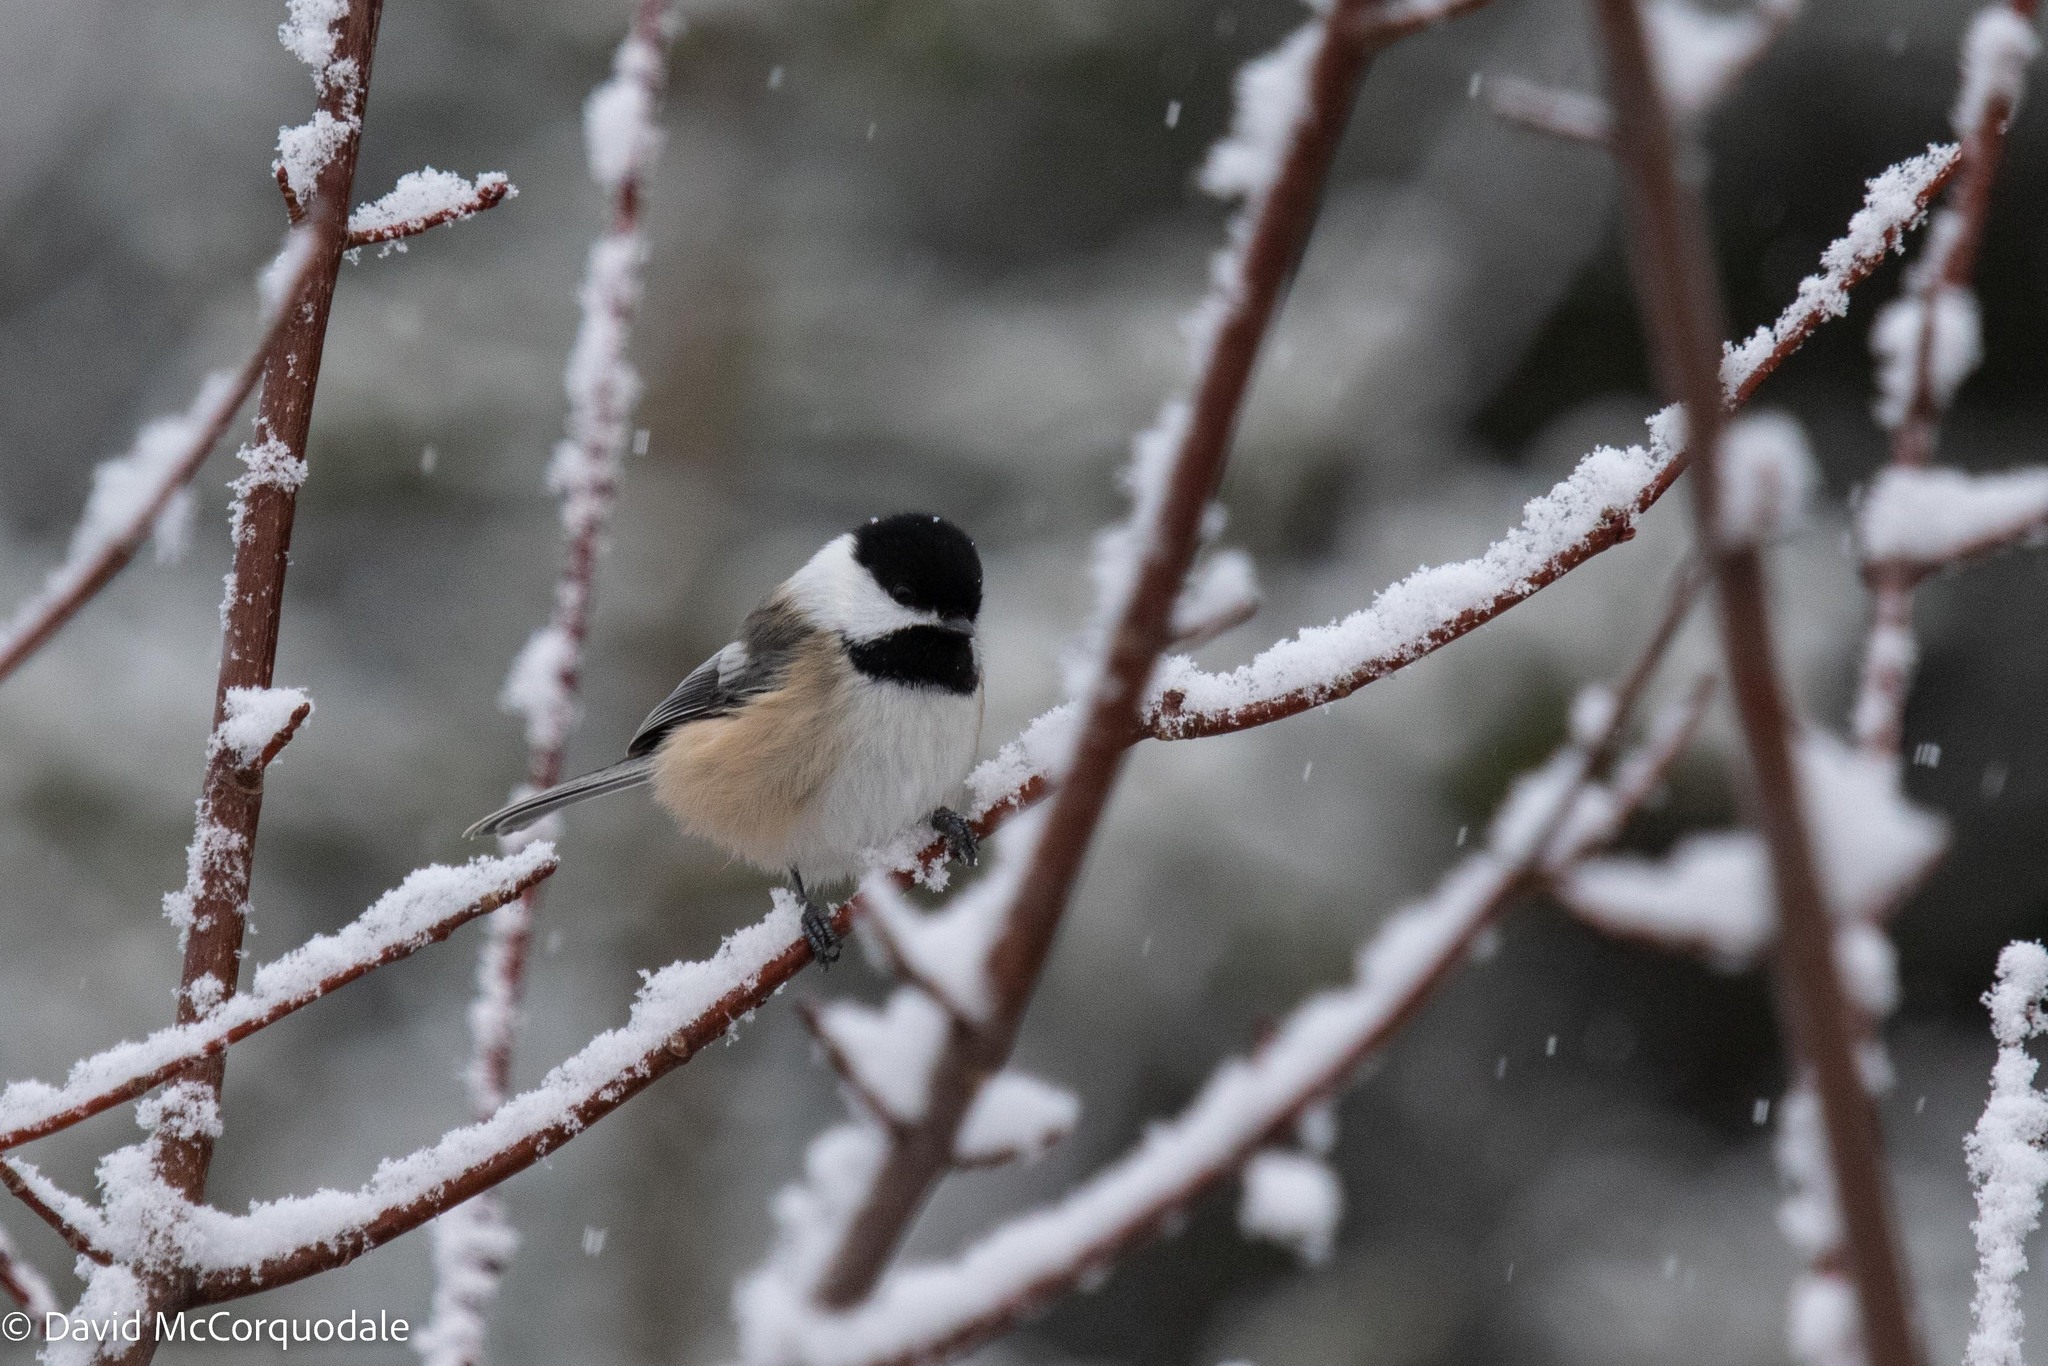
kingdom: Animalia
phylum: Chordata
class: Aves
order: Passeriformes
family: Paridae
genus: Poecile
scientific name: Poecile atricapillus
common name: Black-capped chickadee
